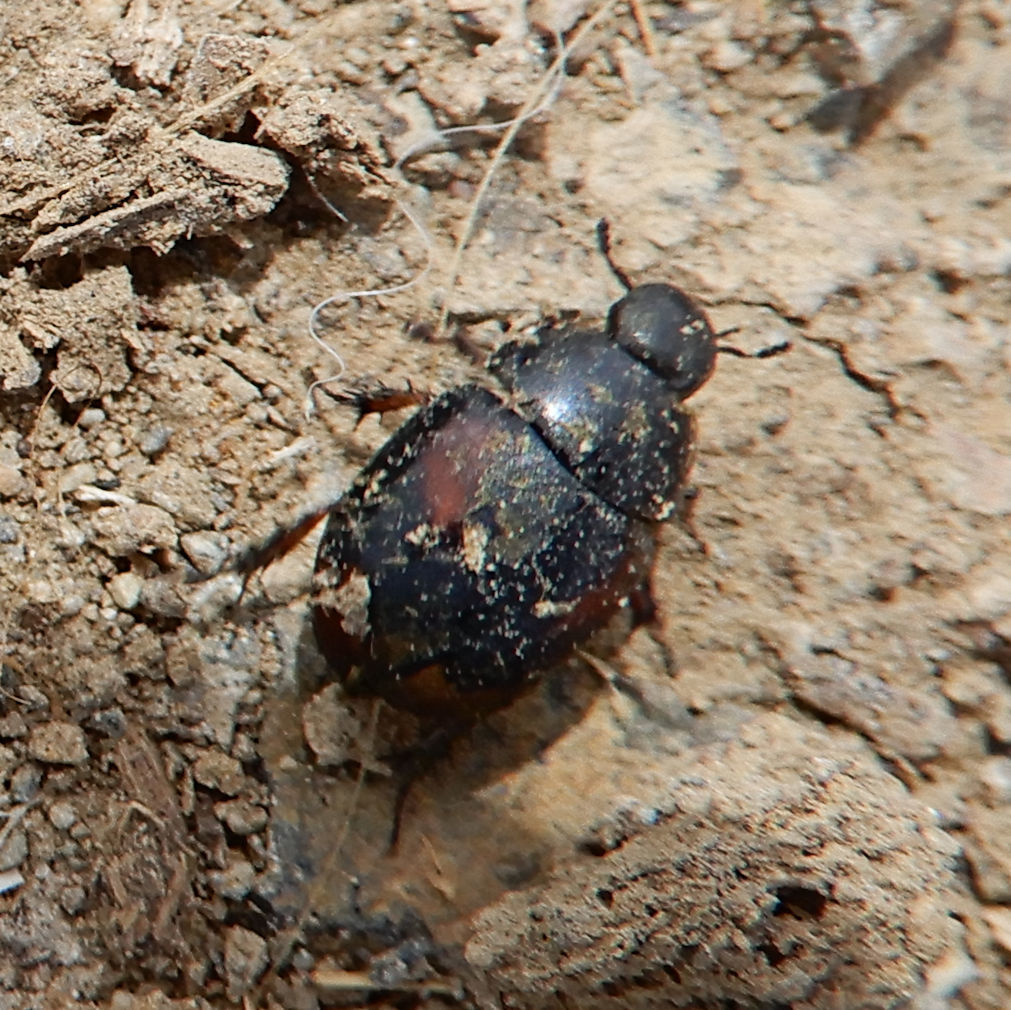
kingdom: Animalia
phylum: Arthropoda
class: Insecta
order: Coleoptera
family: Hydrophilidae
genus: Sphaeridium
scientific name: Sphaeridium
